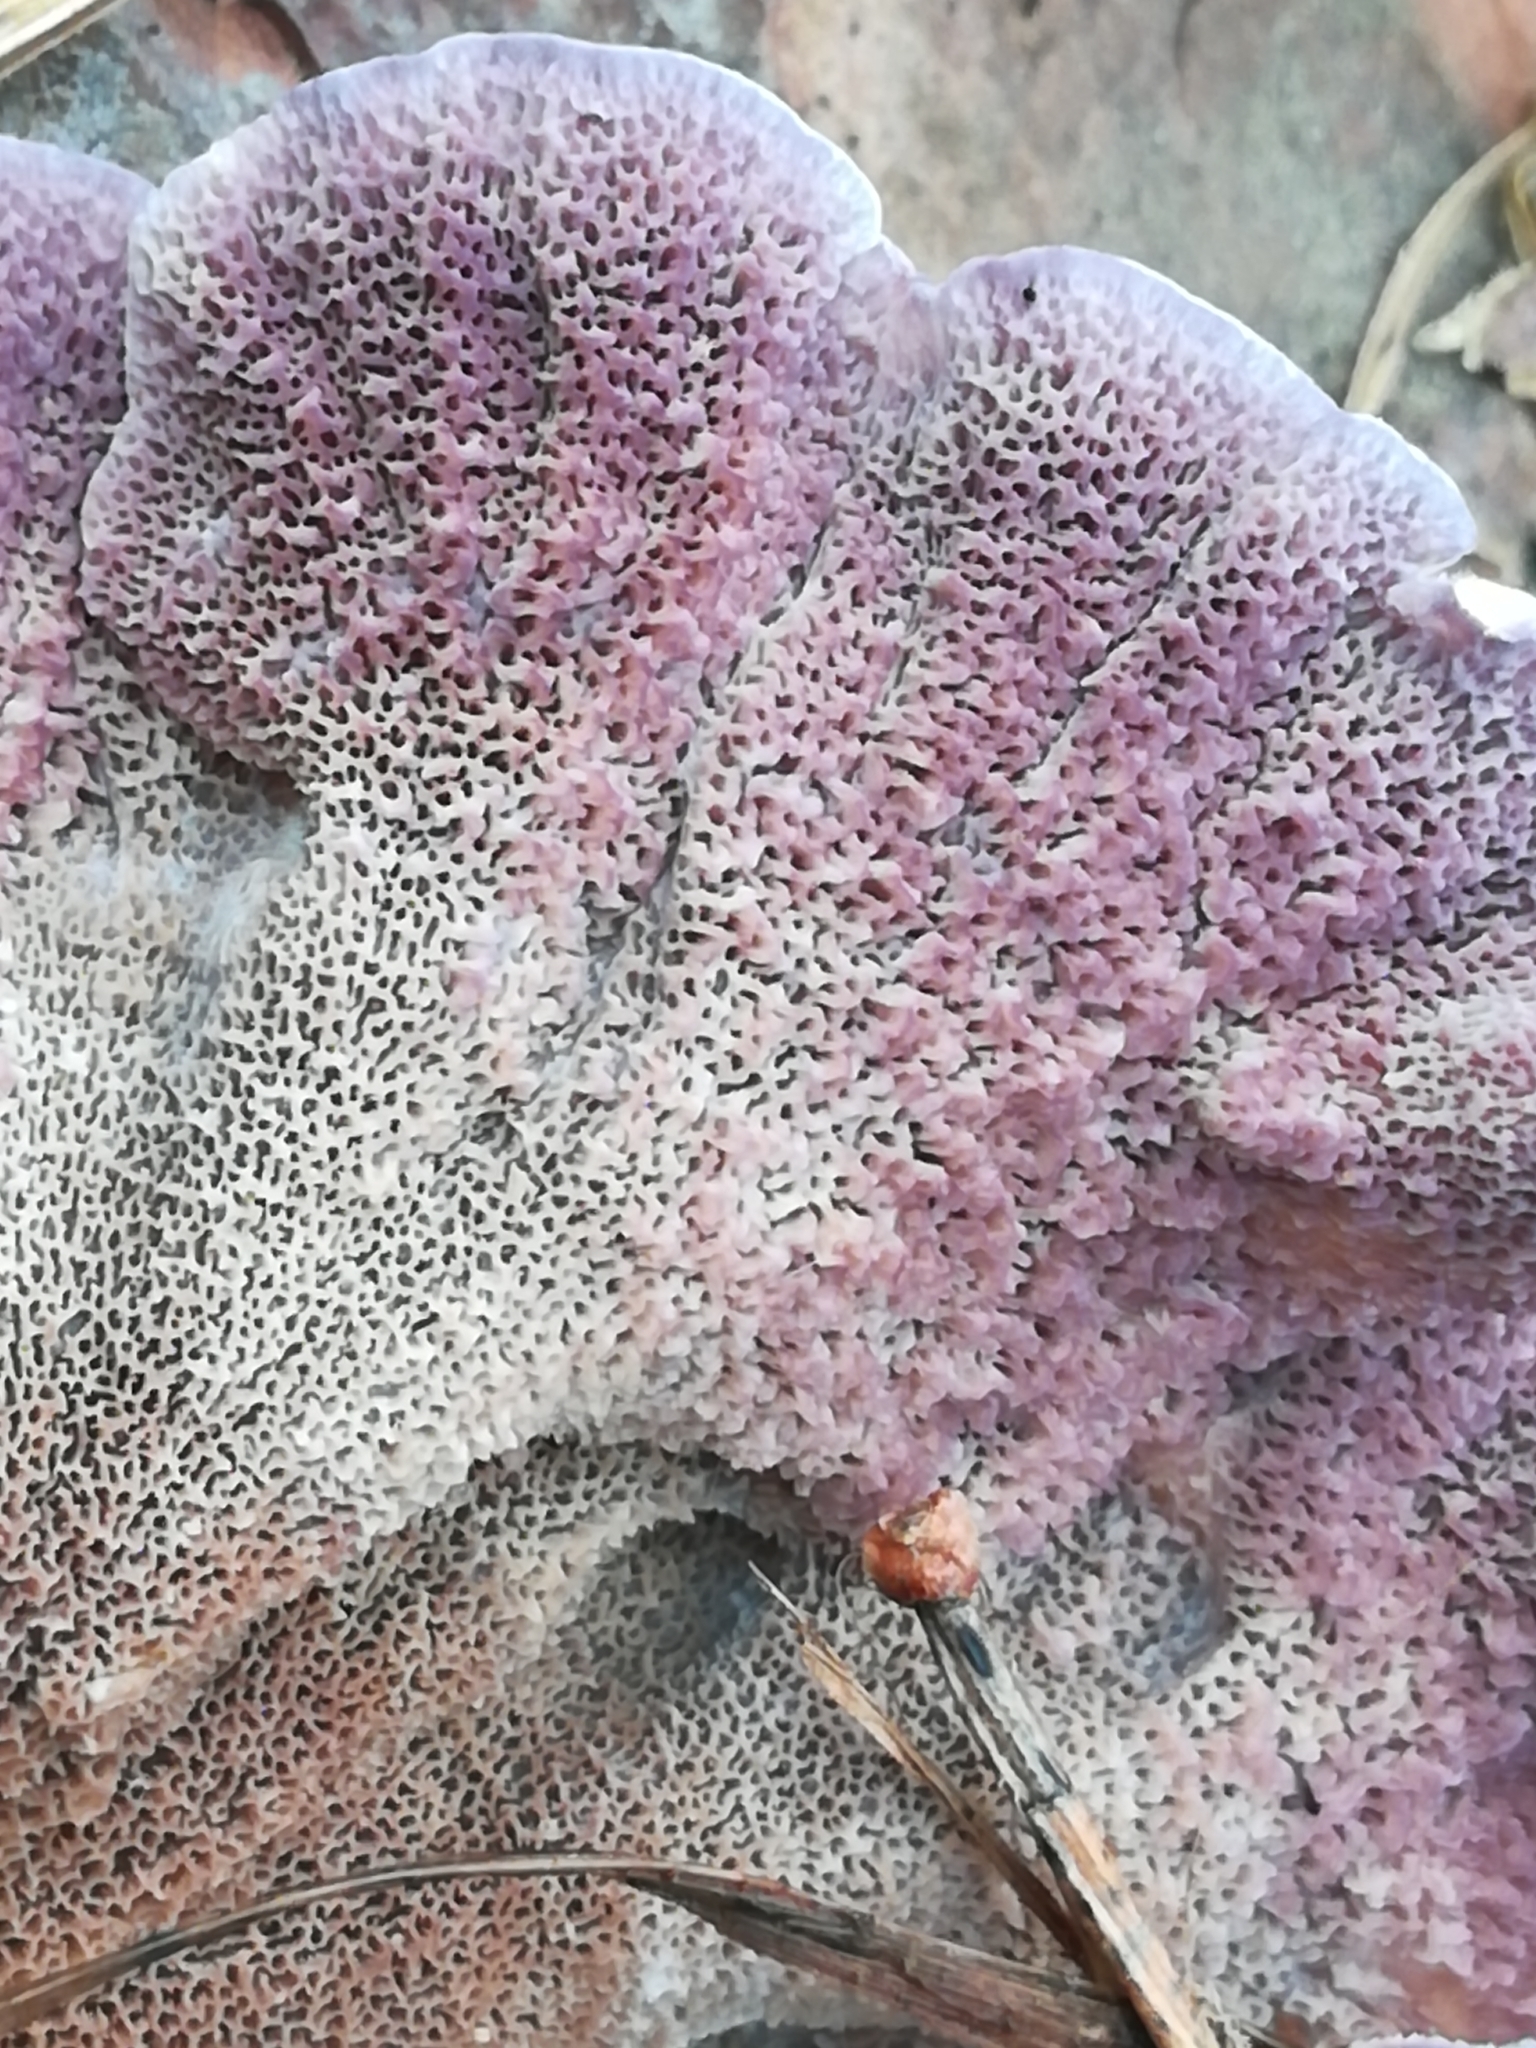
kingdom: Fungi
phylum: Basidiomycota
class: Agaricomycetes
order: Hymenochaetales
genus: Trichaptum
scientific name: Trichaptum abietinum
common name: Purplepore bracket
